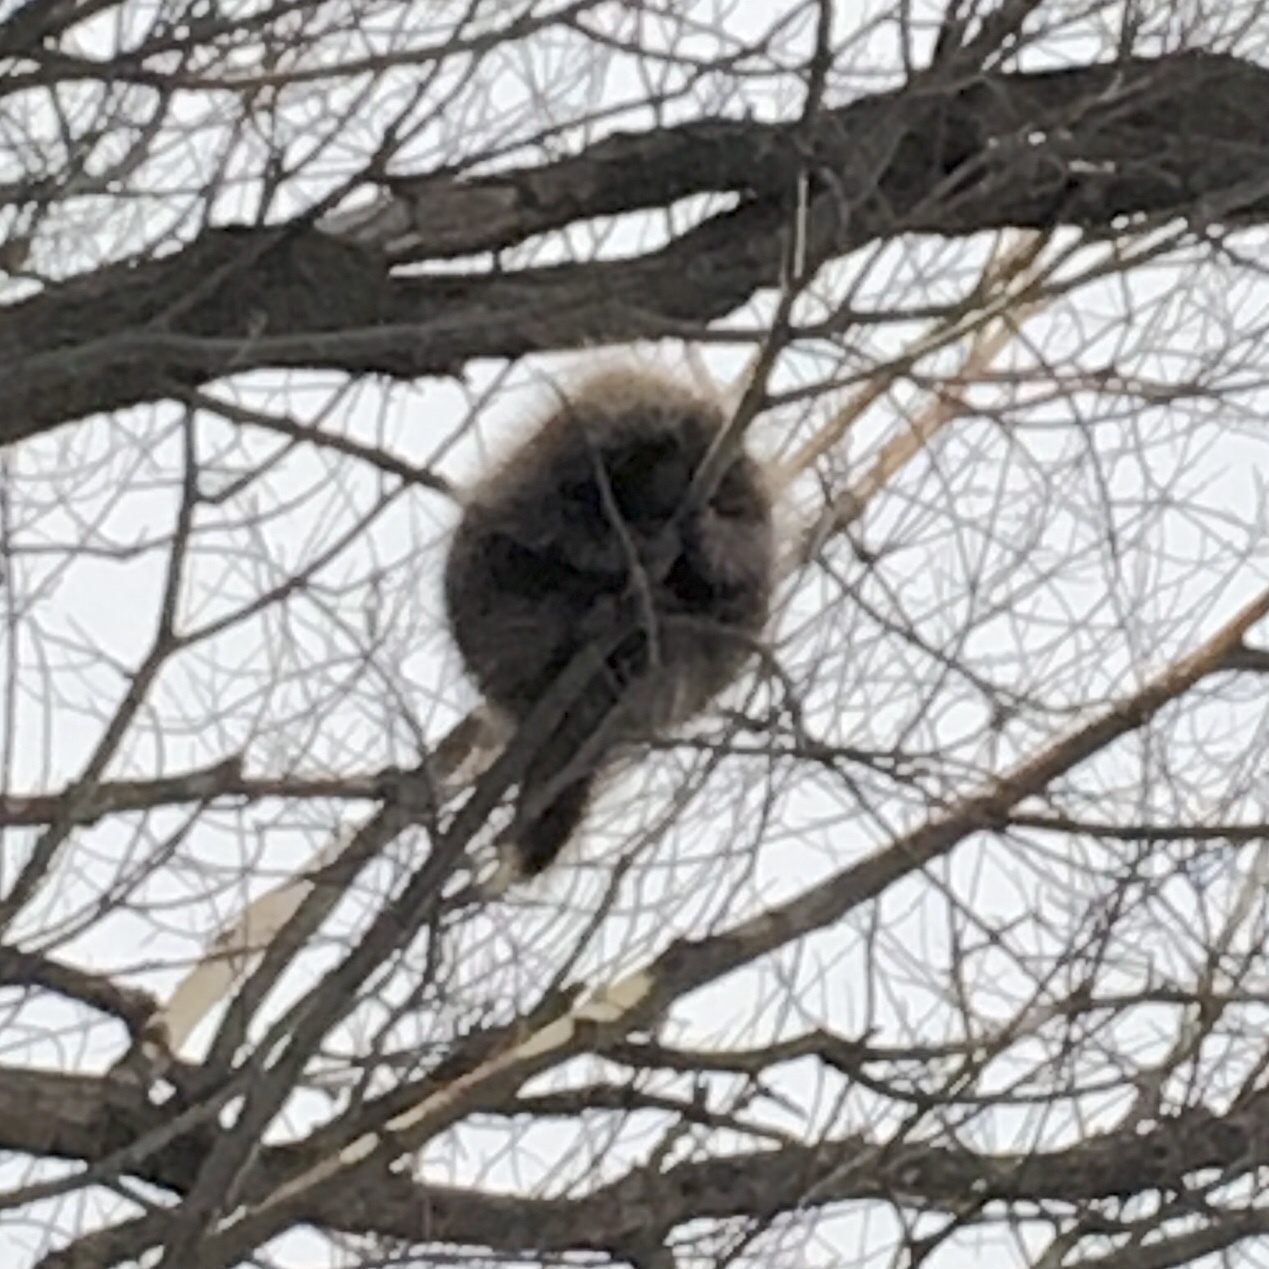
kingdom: Animalia
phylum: Chordata
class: Mammalia
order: Rodentia
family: Erethizontidae
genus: Erethizon
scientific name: Erethizon dorsatus
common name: North american porcupine
